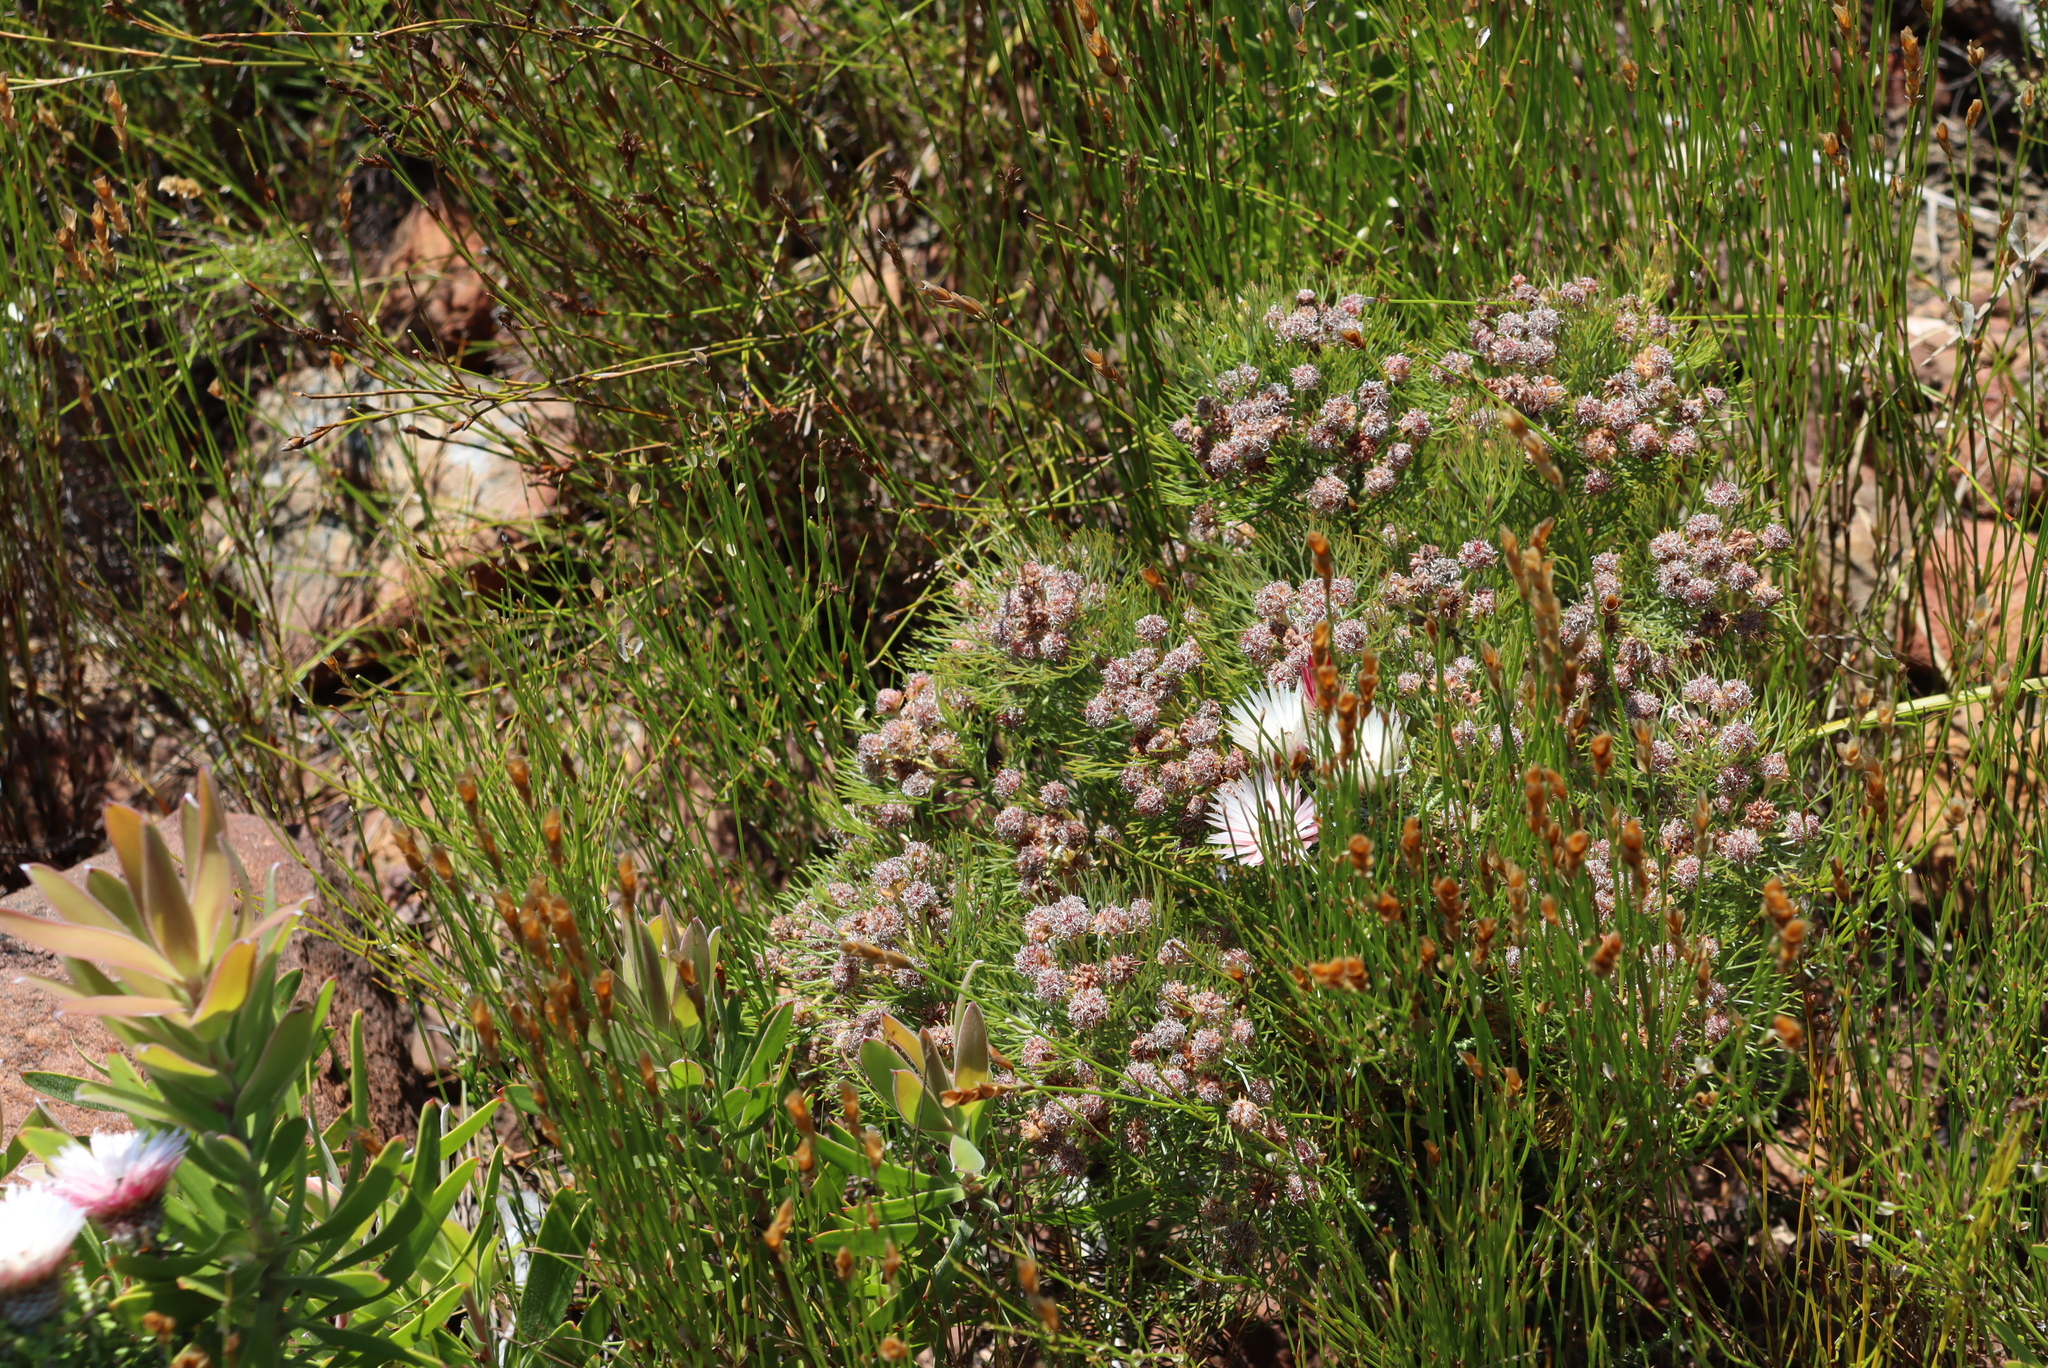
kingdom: Plantae
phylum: Tracheophyta
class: Magnoliopsida
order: Proteales
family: Proteaceae
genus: Serruria
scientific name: Serruria fasciflora
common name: Common pin spiderhead
